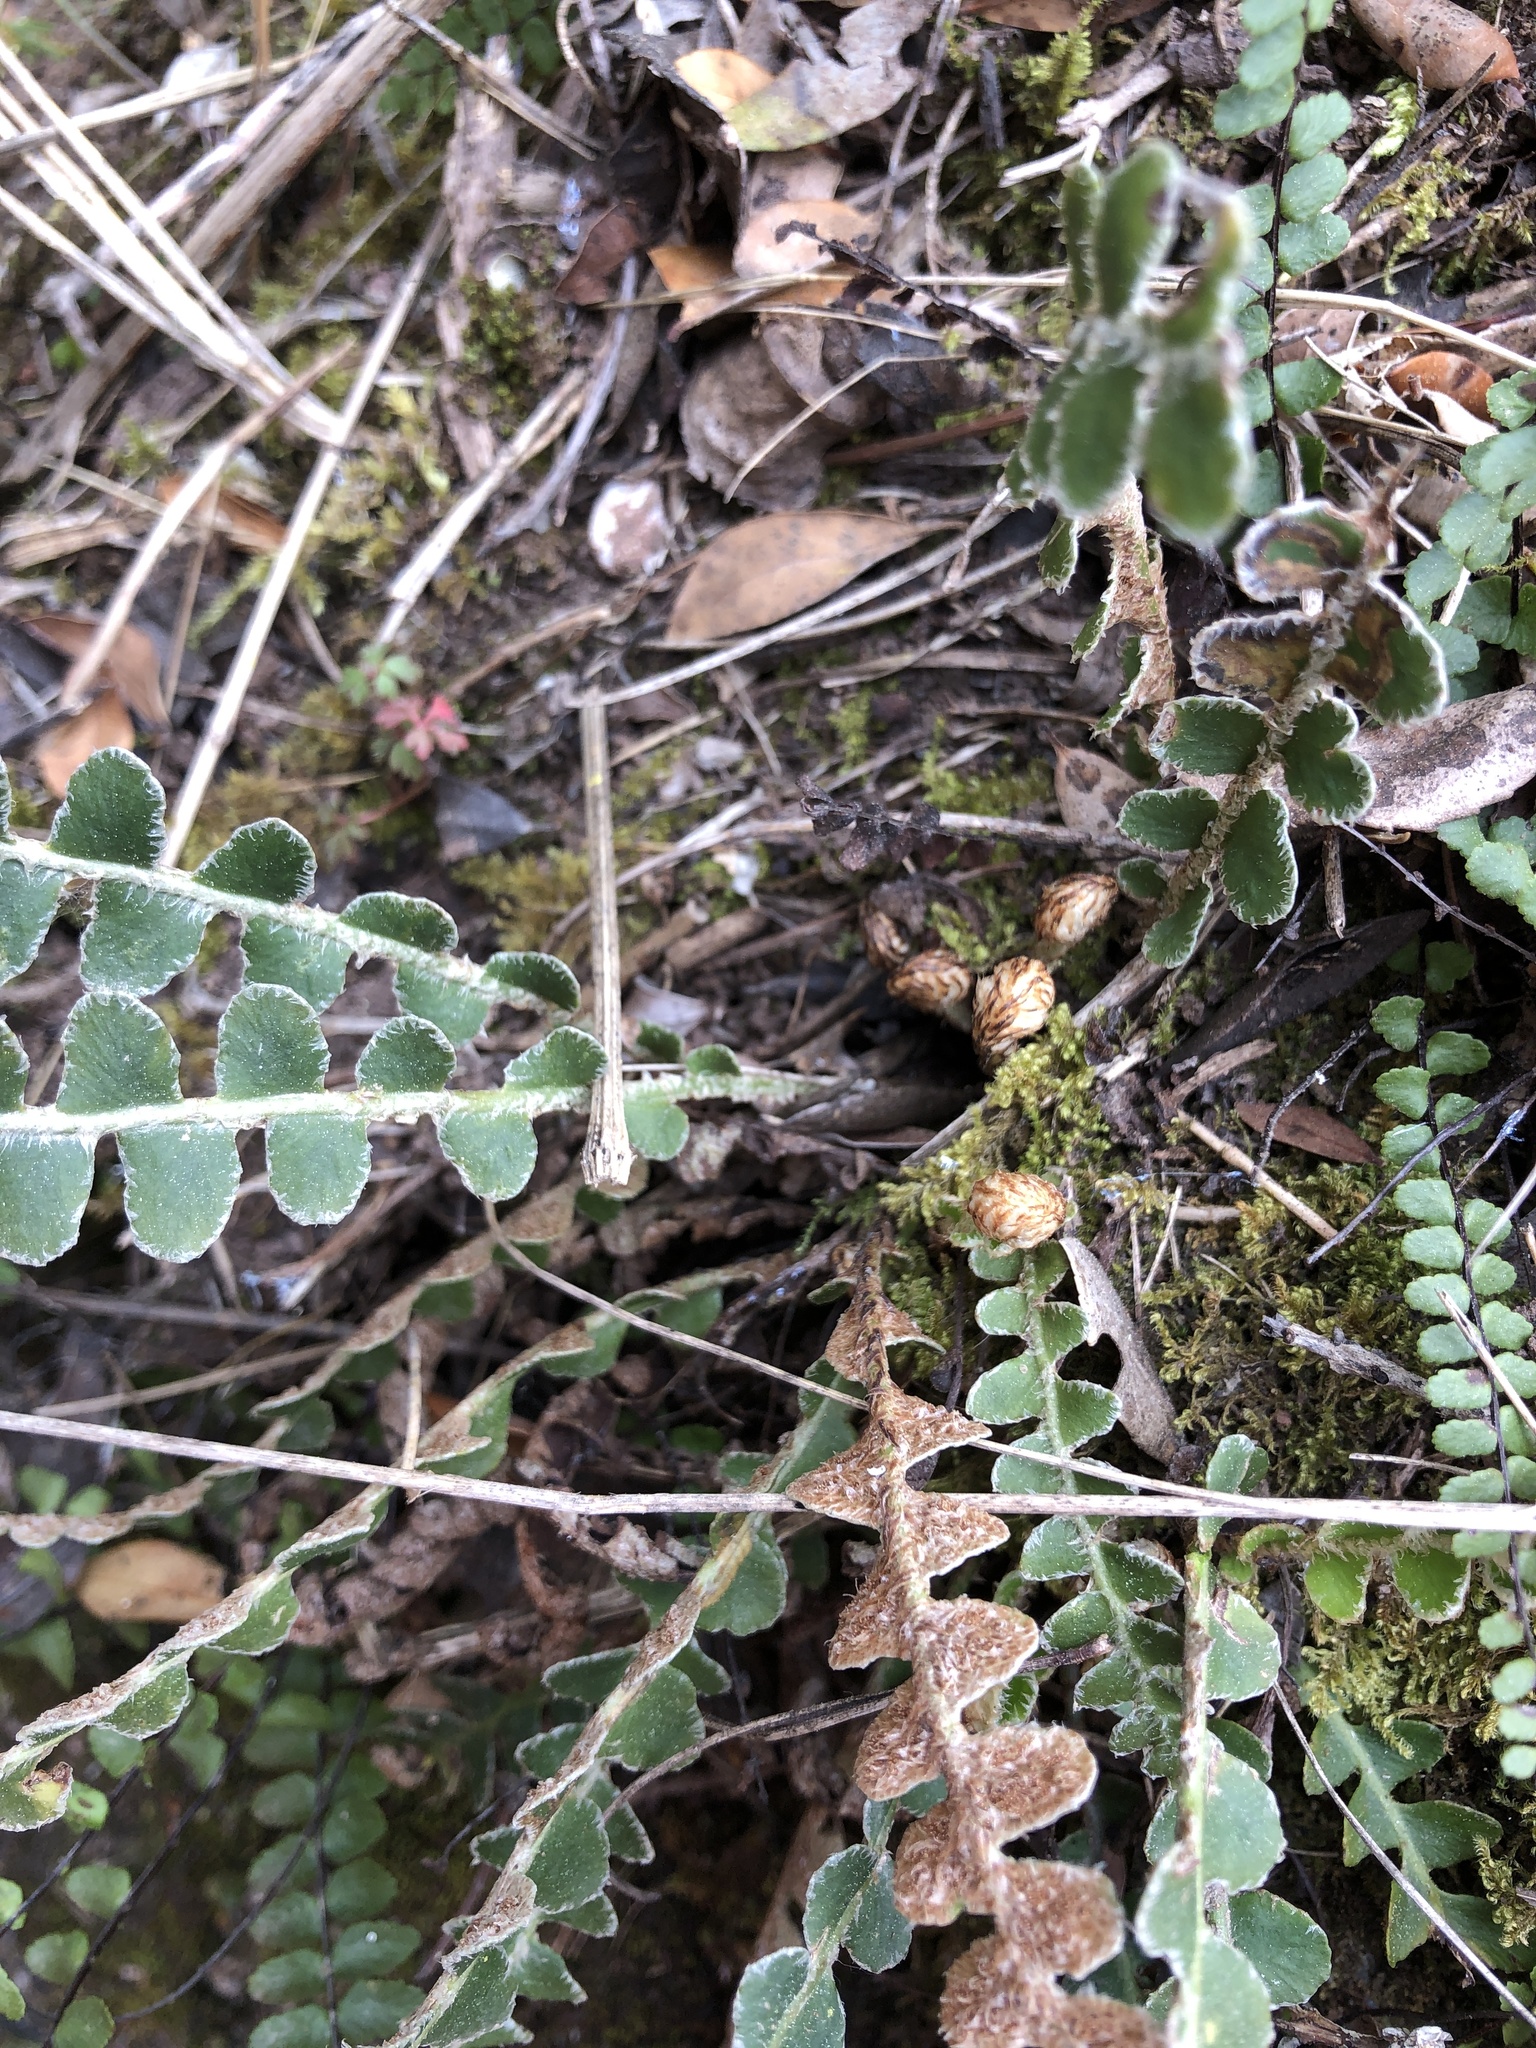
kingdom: Plantae
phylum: Tracheophyta
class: Polypodiopsida
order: Polypodiales
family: Aspleniaceae
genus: Asplenium
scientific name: Asplenium ceterach
